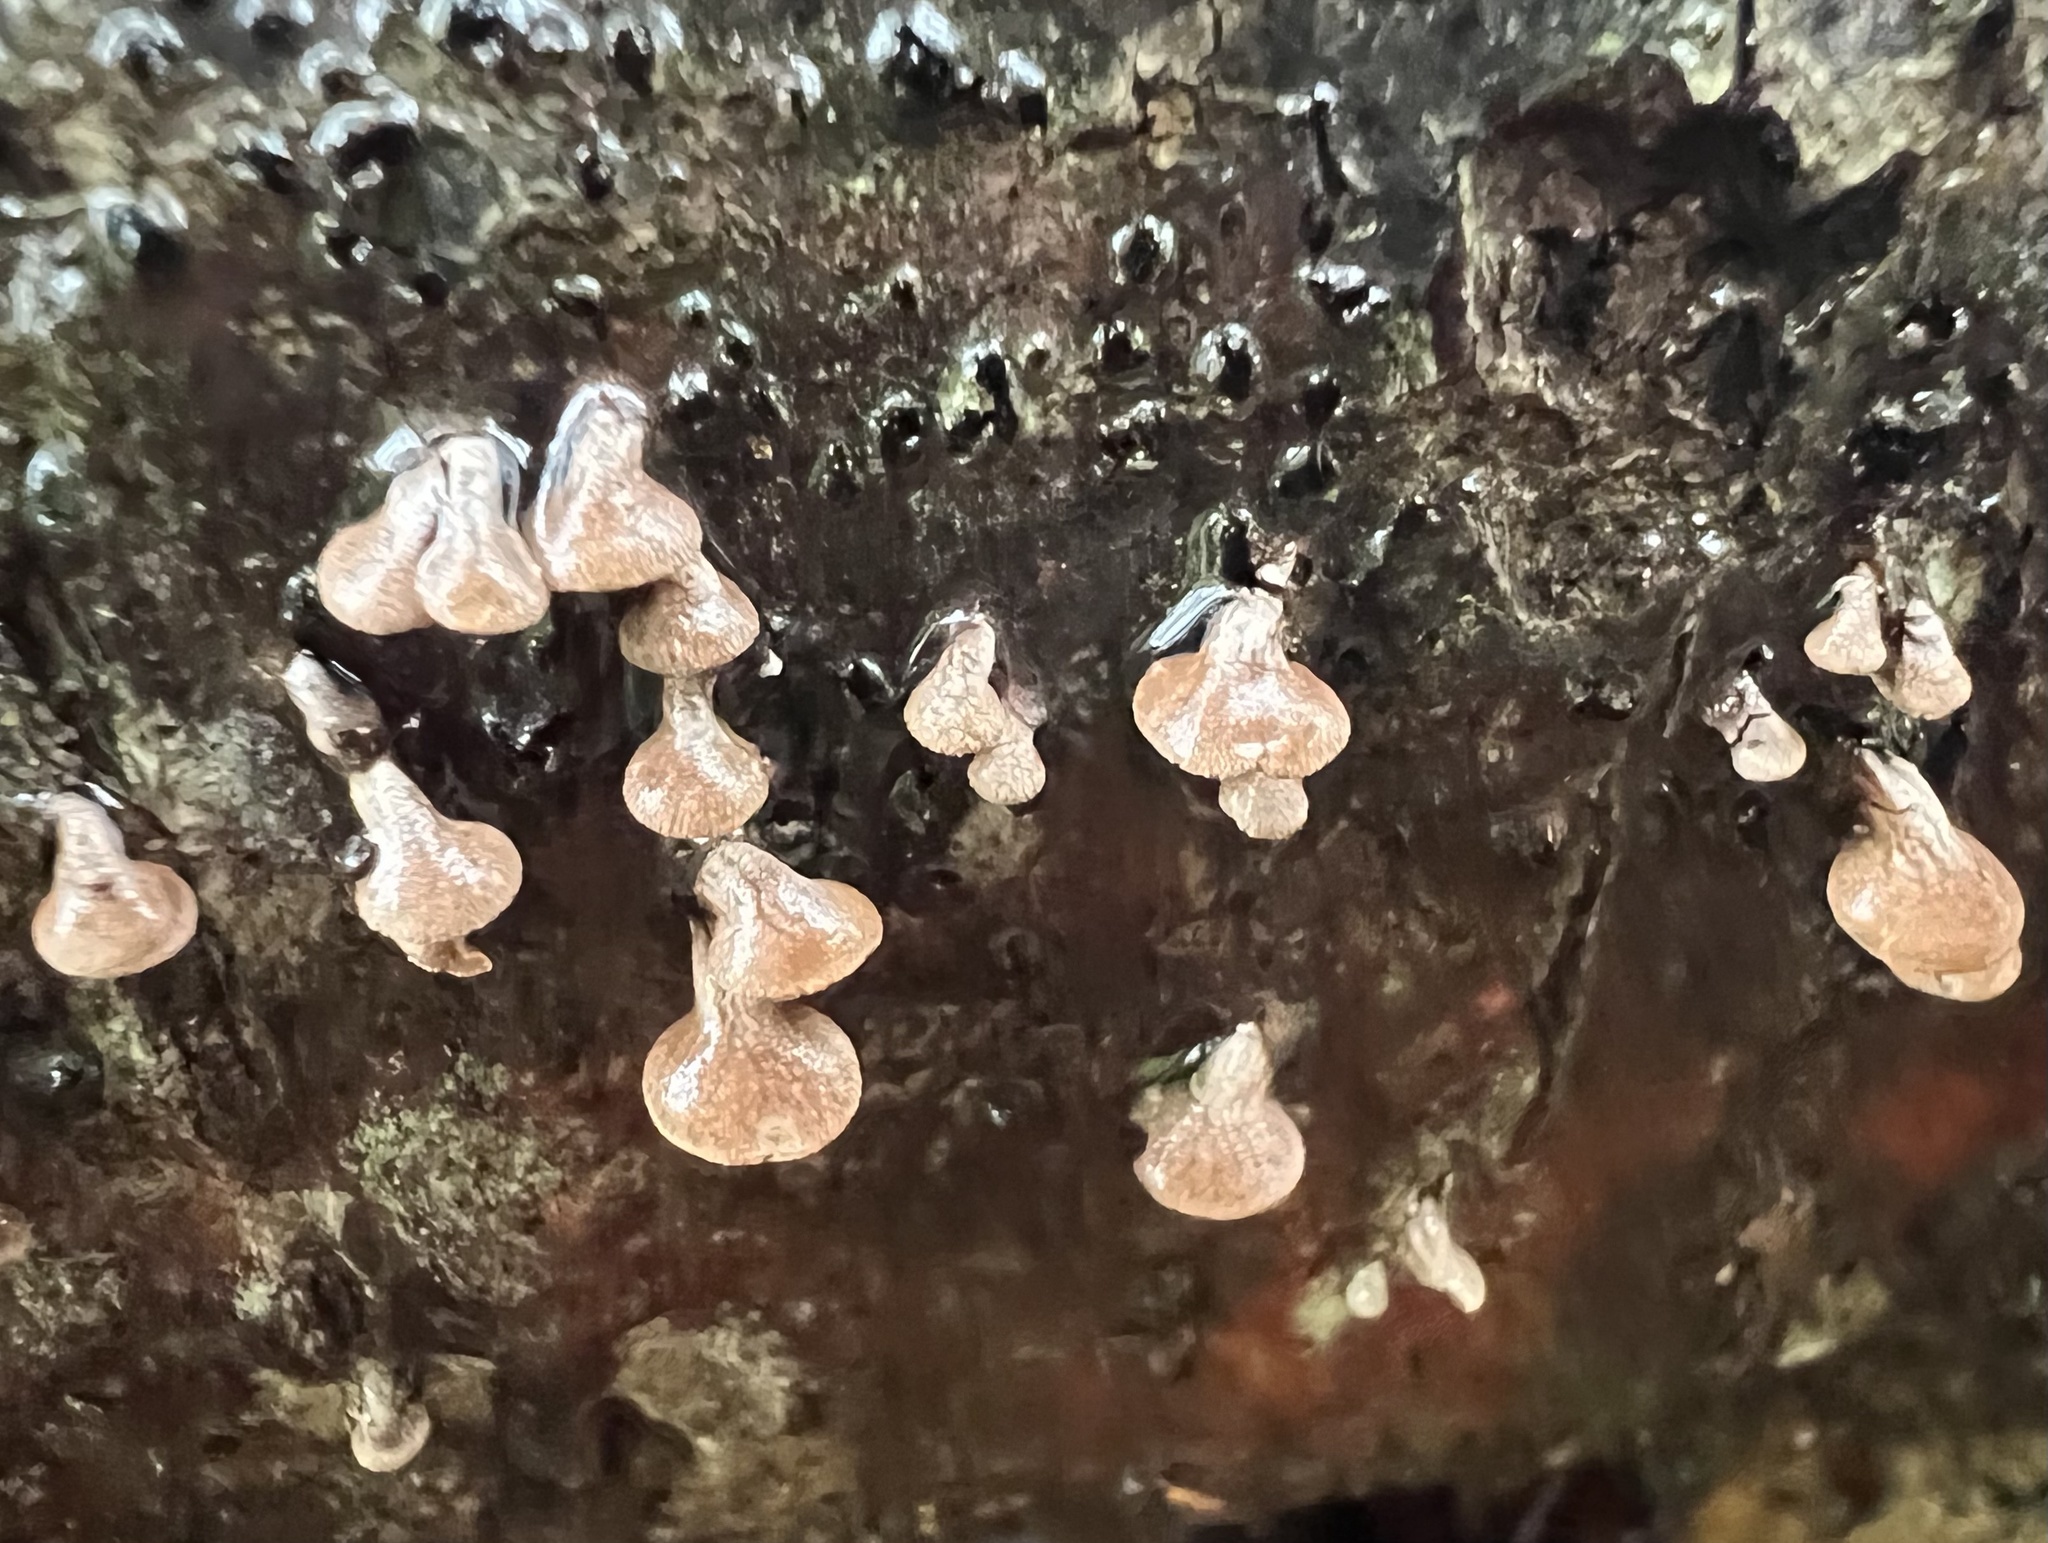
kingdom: Fungi
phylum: Basidiomycota
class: Agaricomycetes
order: Agaricales
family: Schizophyllaceae
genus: Porodisculus
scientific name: Porodisculus pendulus
